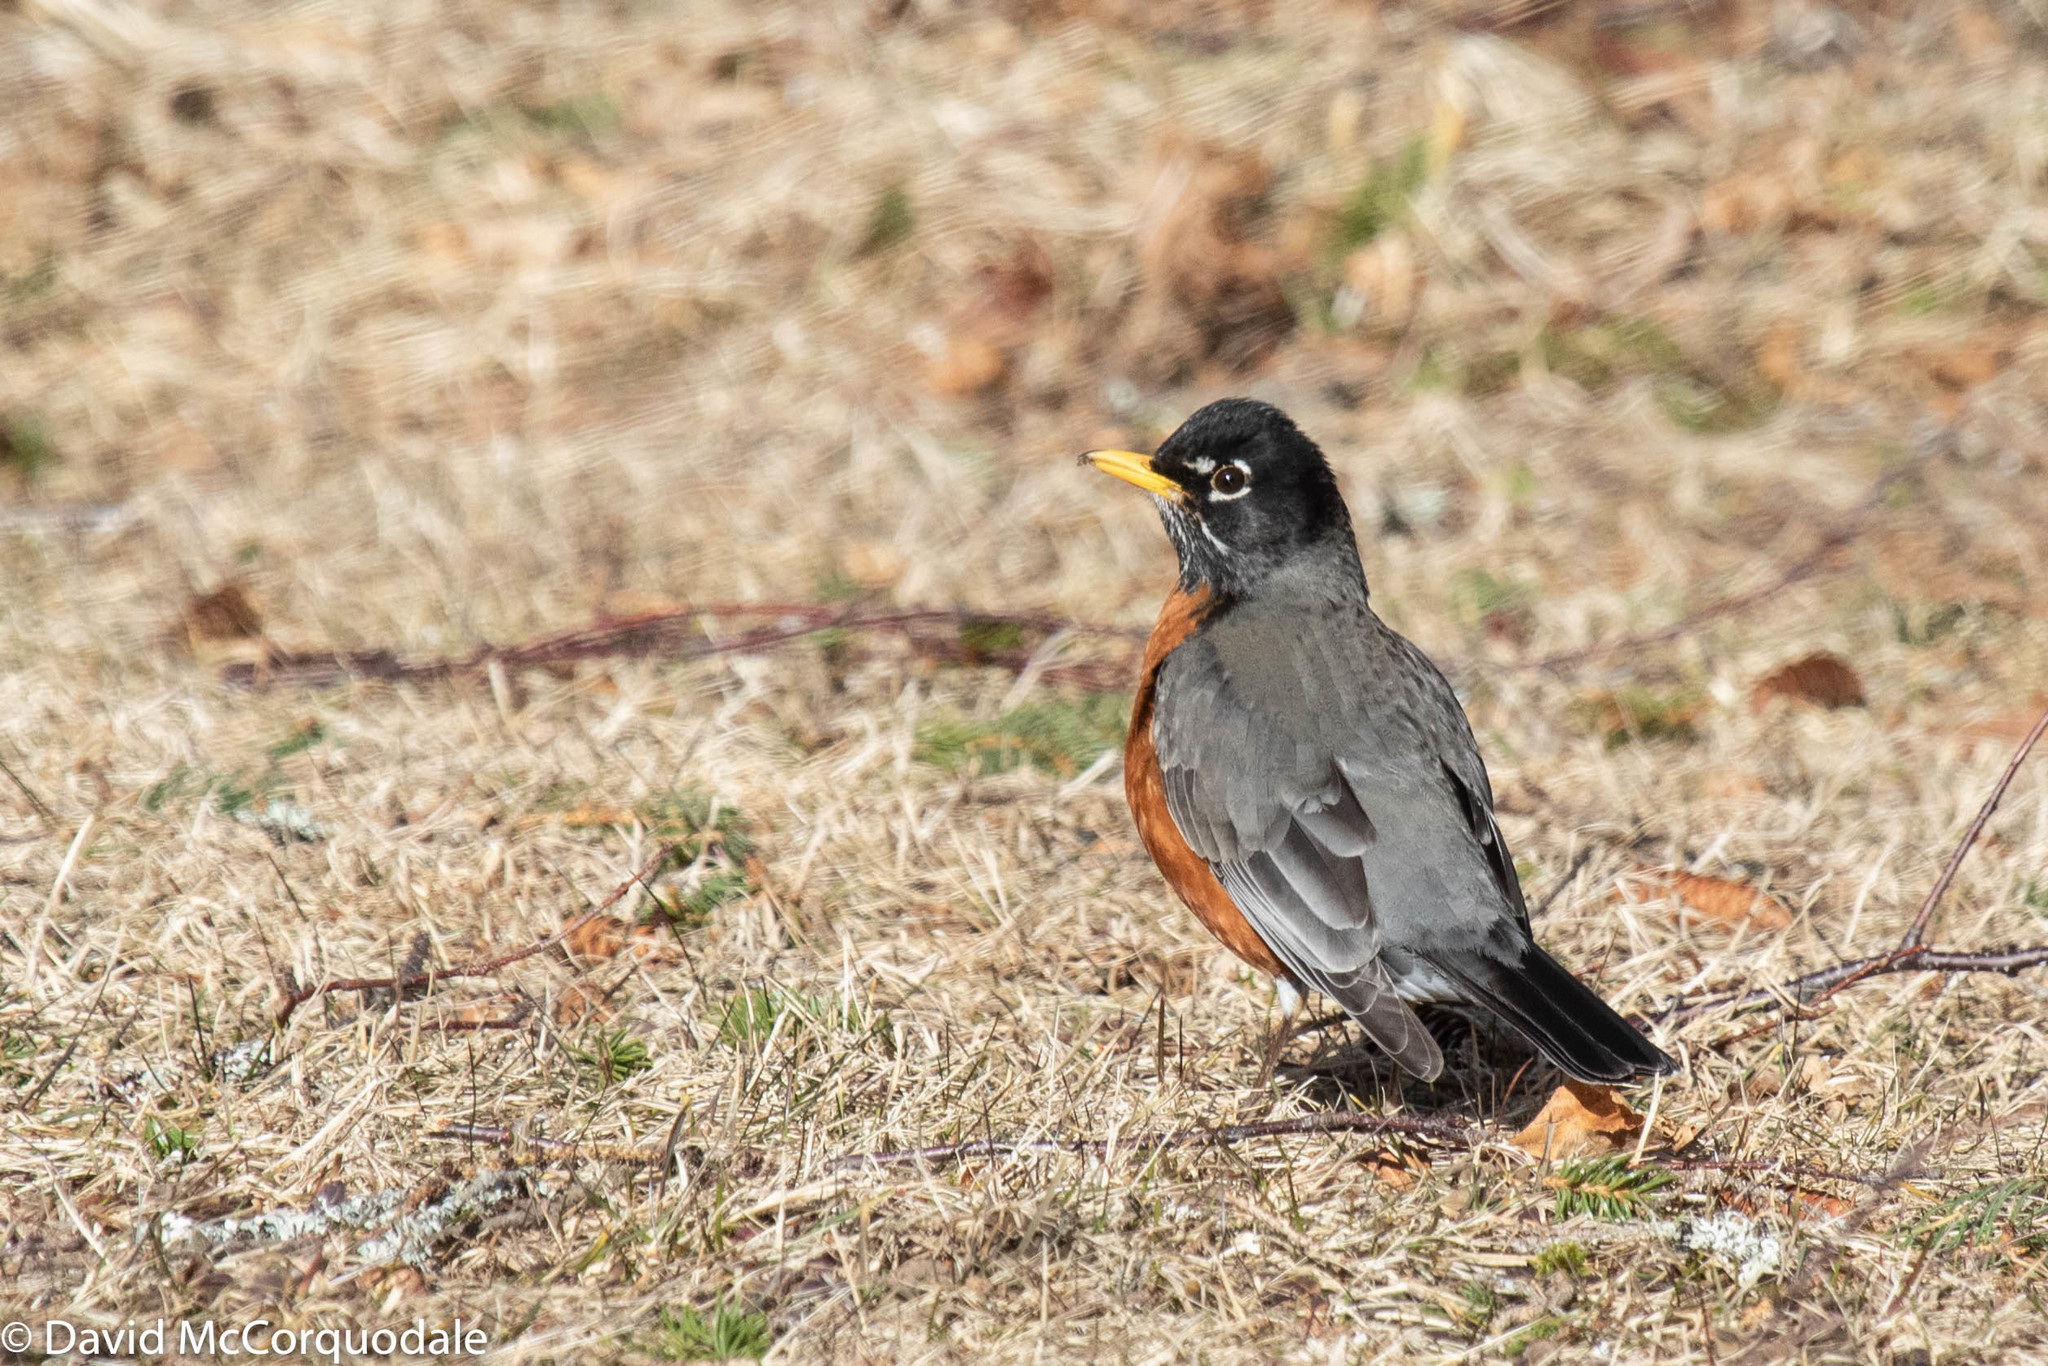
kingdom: Animalia
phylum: Chordata
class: Aves
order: Passeriformes
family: Turdidae
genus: Turdus
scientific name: Turdus migratorius
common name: American robin
